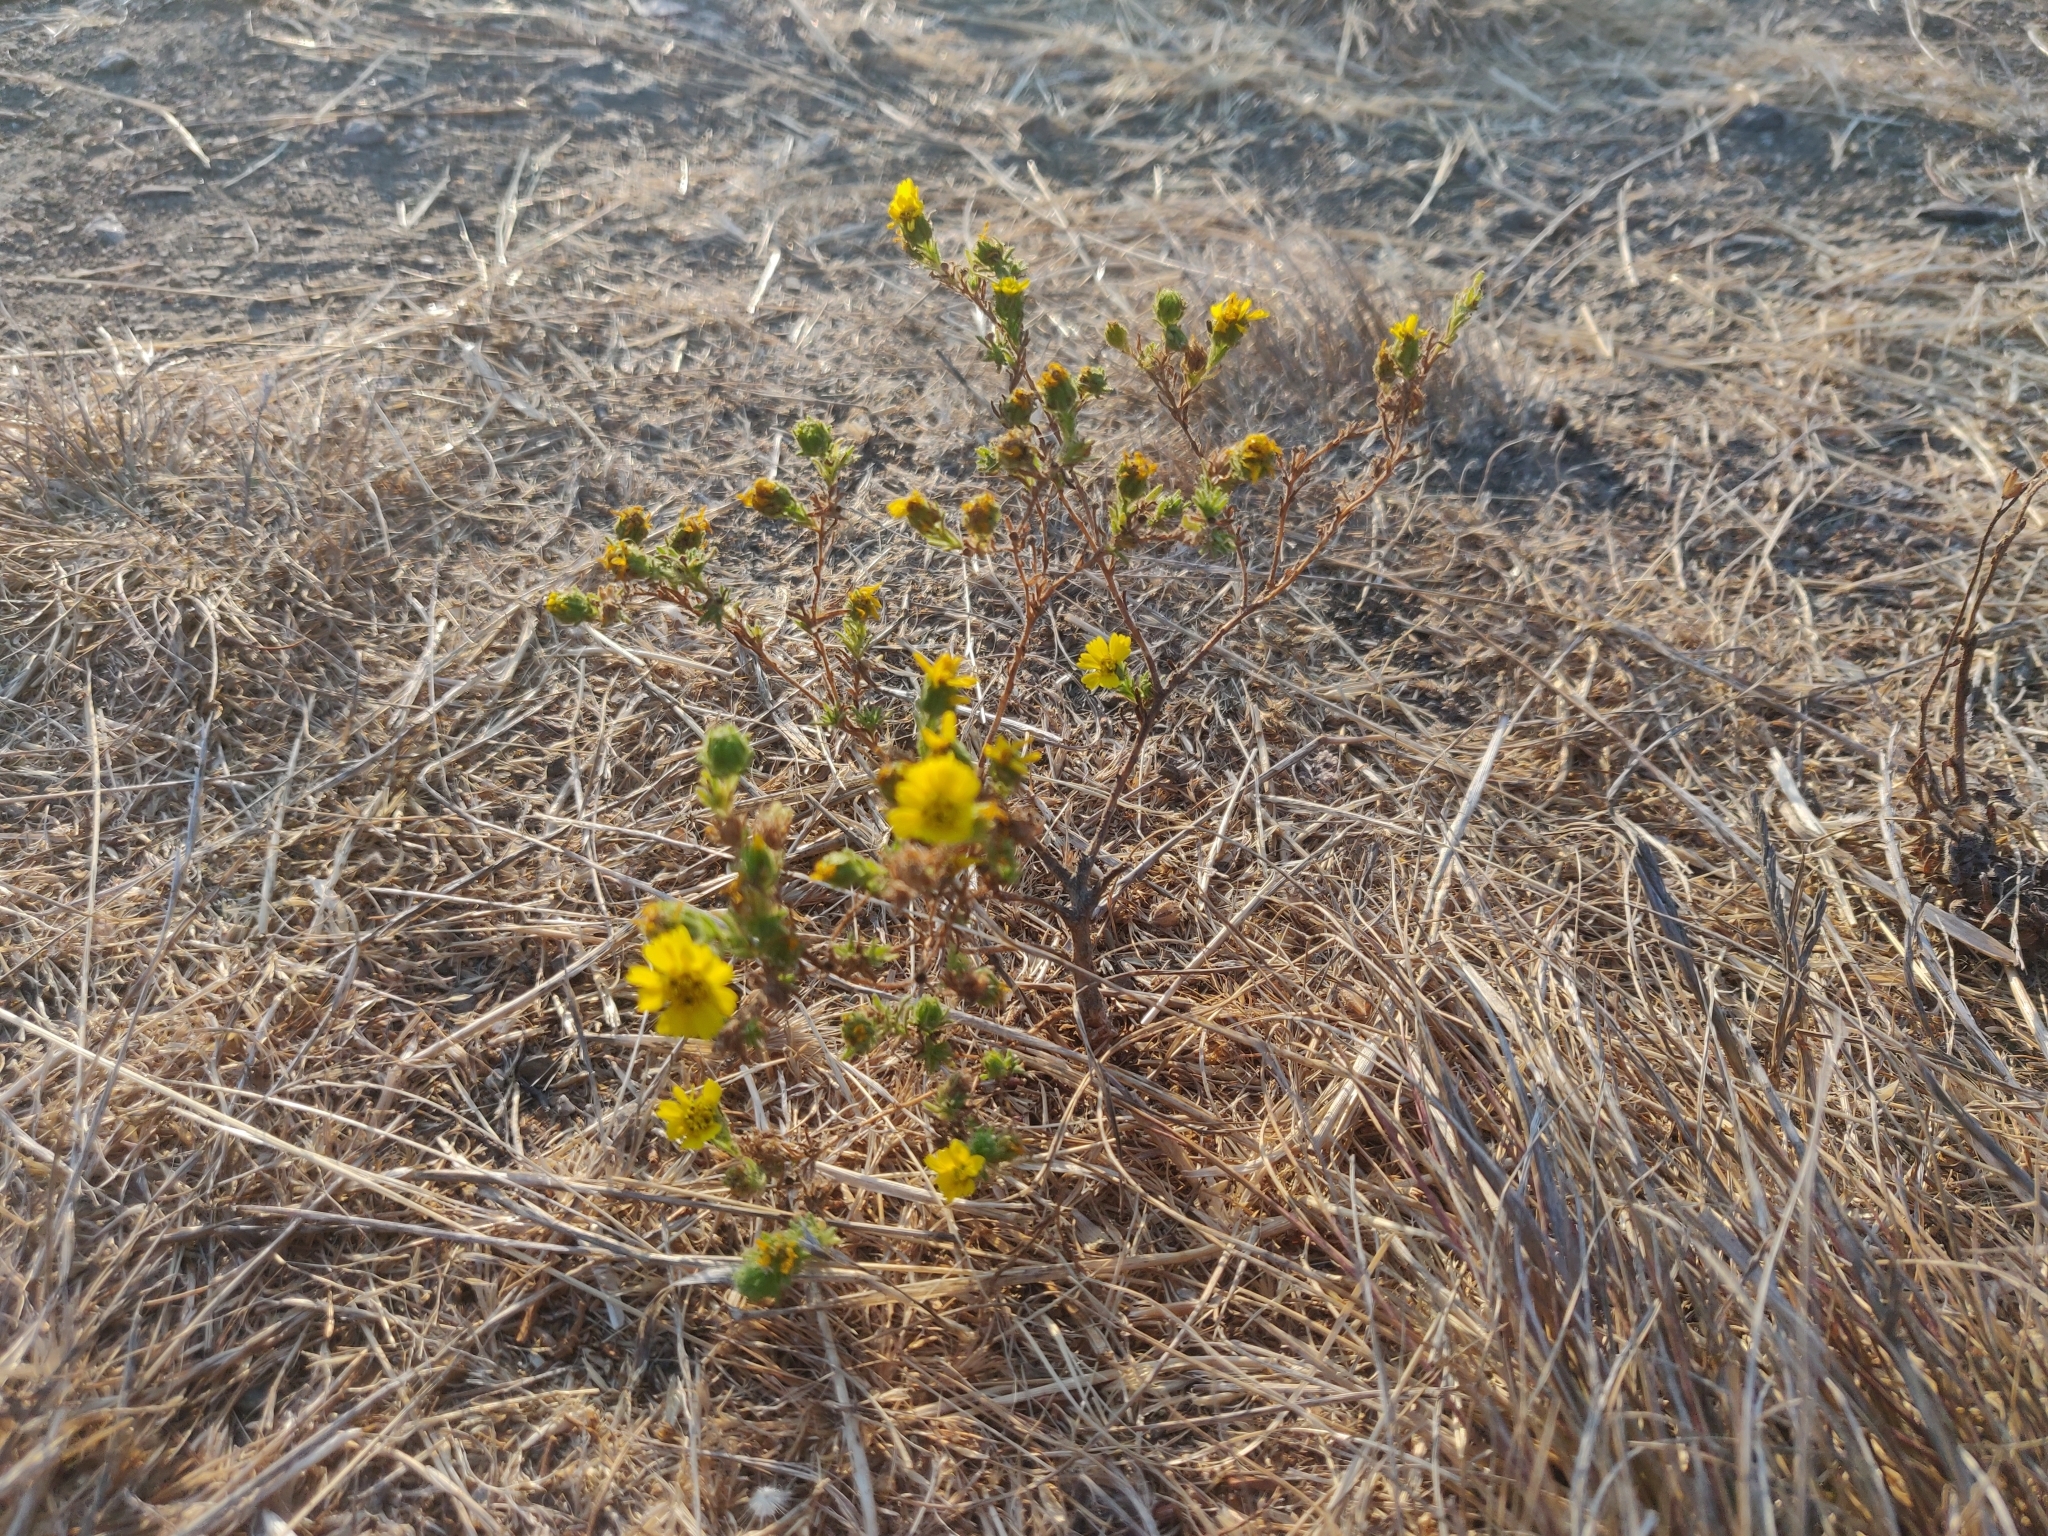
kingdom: Plantae
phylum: Tracheophyta
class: Magnoliopsida
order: Asterales
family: Asteraceae
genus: Deinandra
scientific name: Deinandra corymbosa
